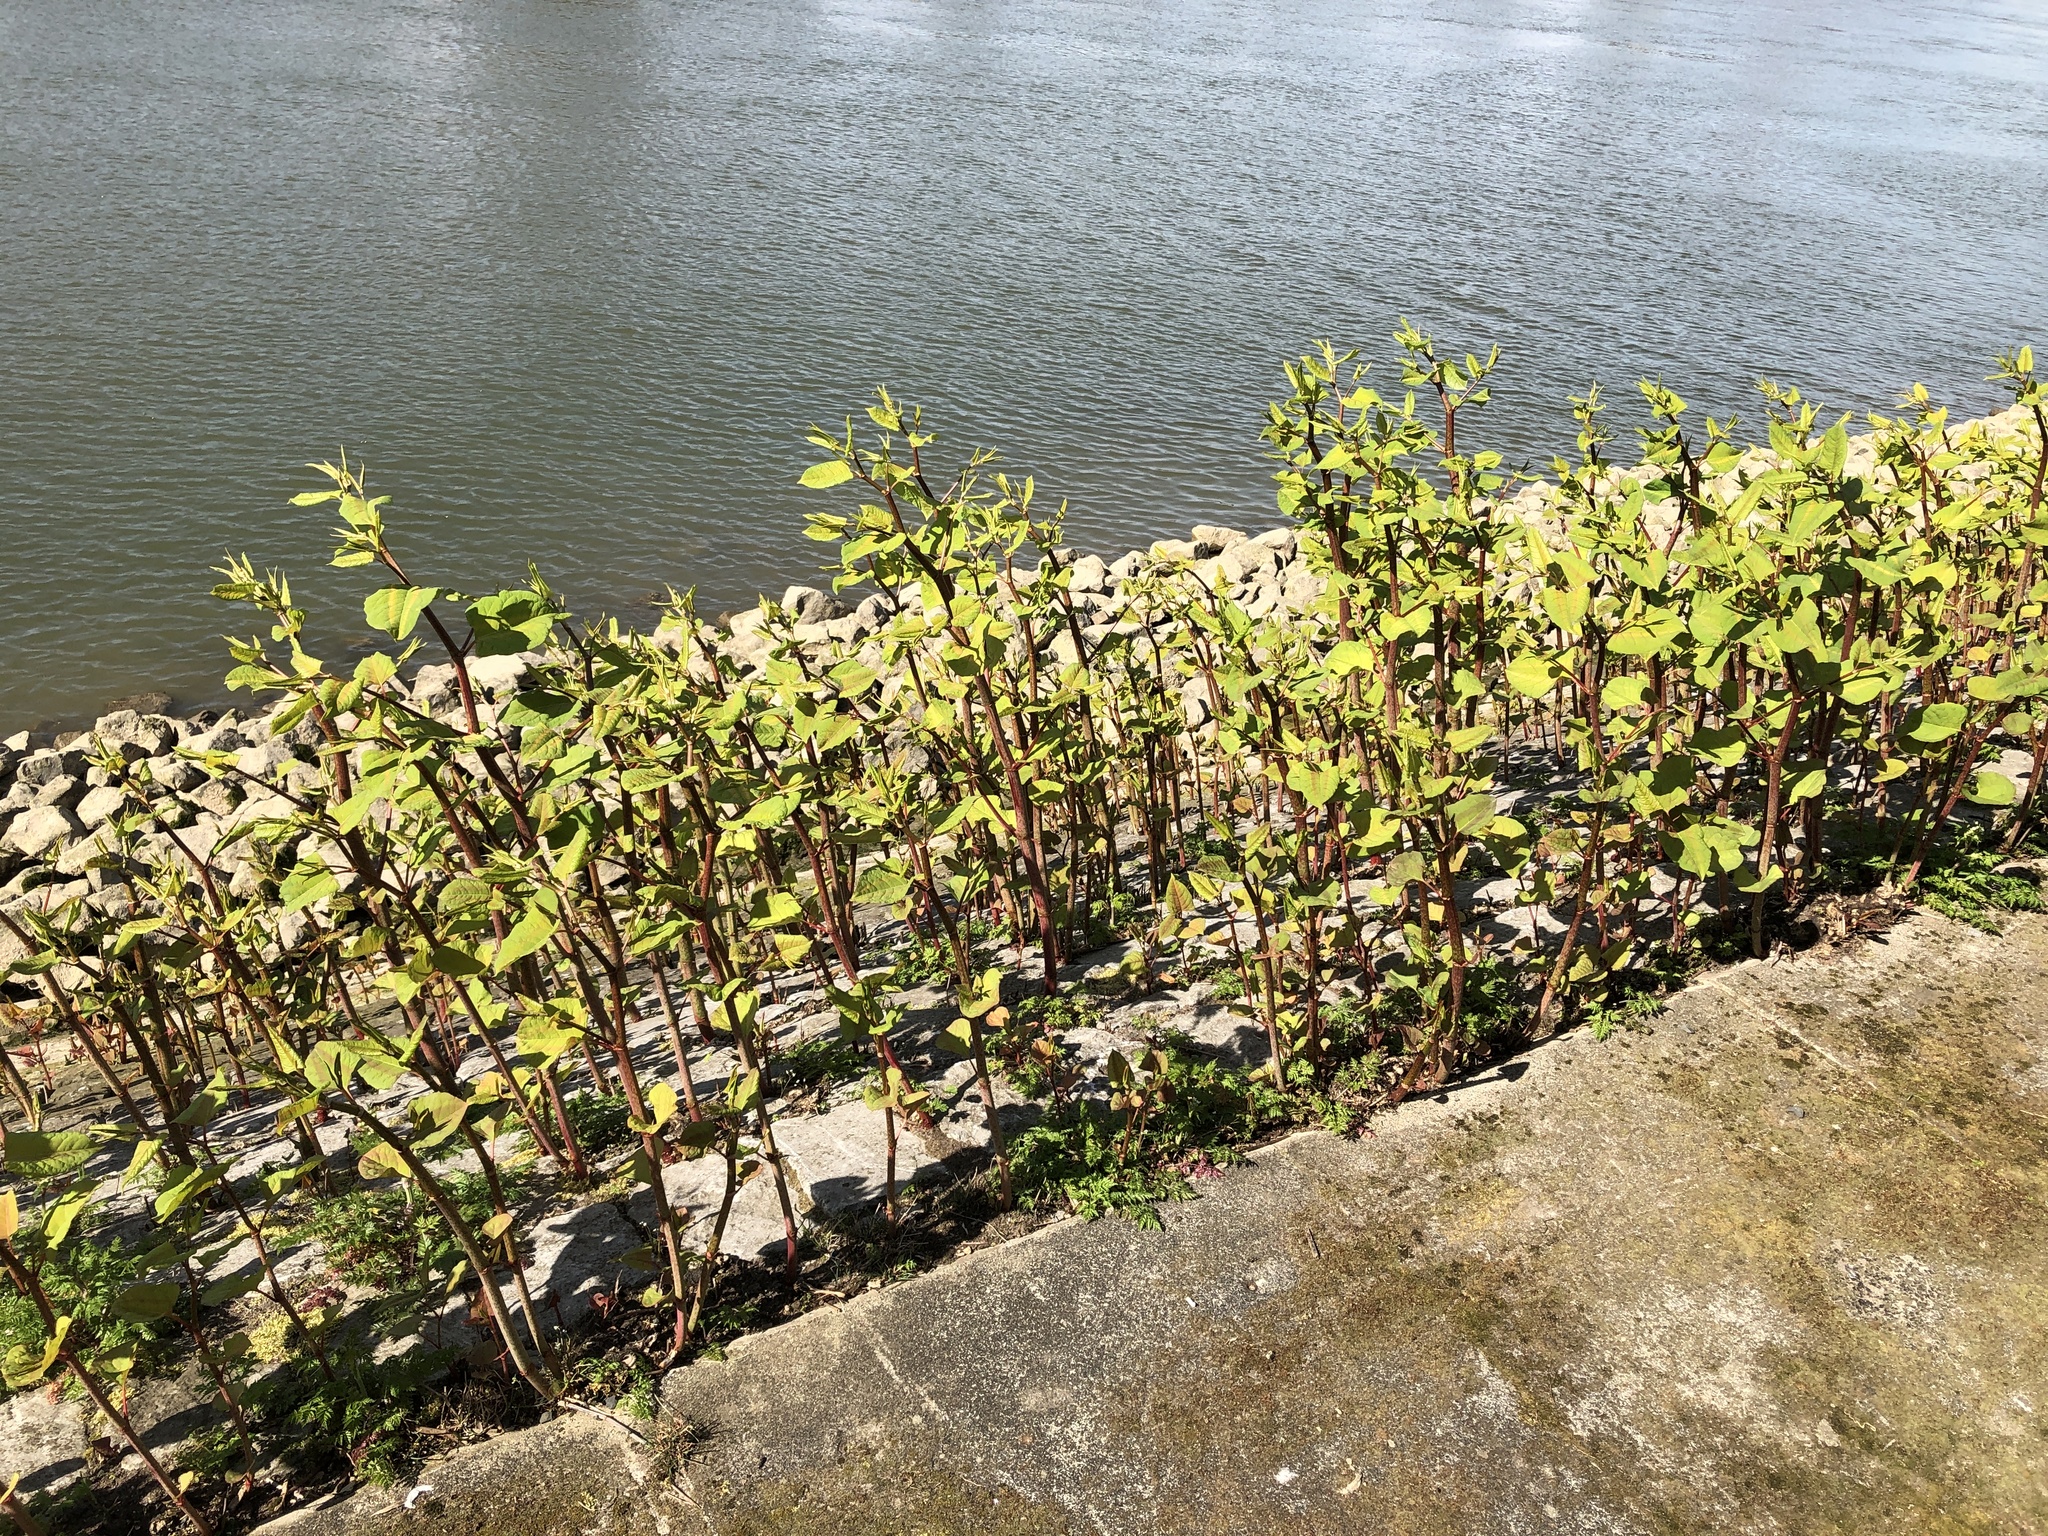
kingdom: Plantae
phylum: Tracheophyta
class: Magnoliopsida
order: Caryophyllales
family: Polygonaceae
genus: Reynoutria
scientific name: Reynoutria japonica
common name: Japanese knotweed
